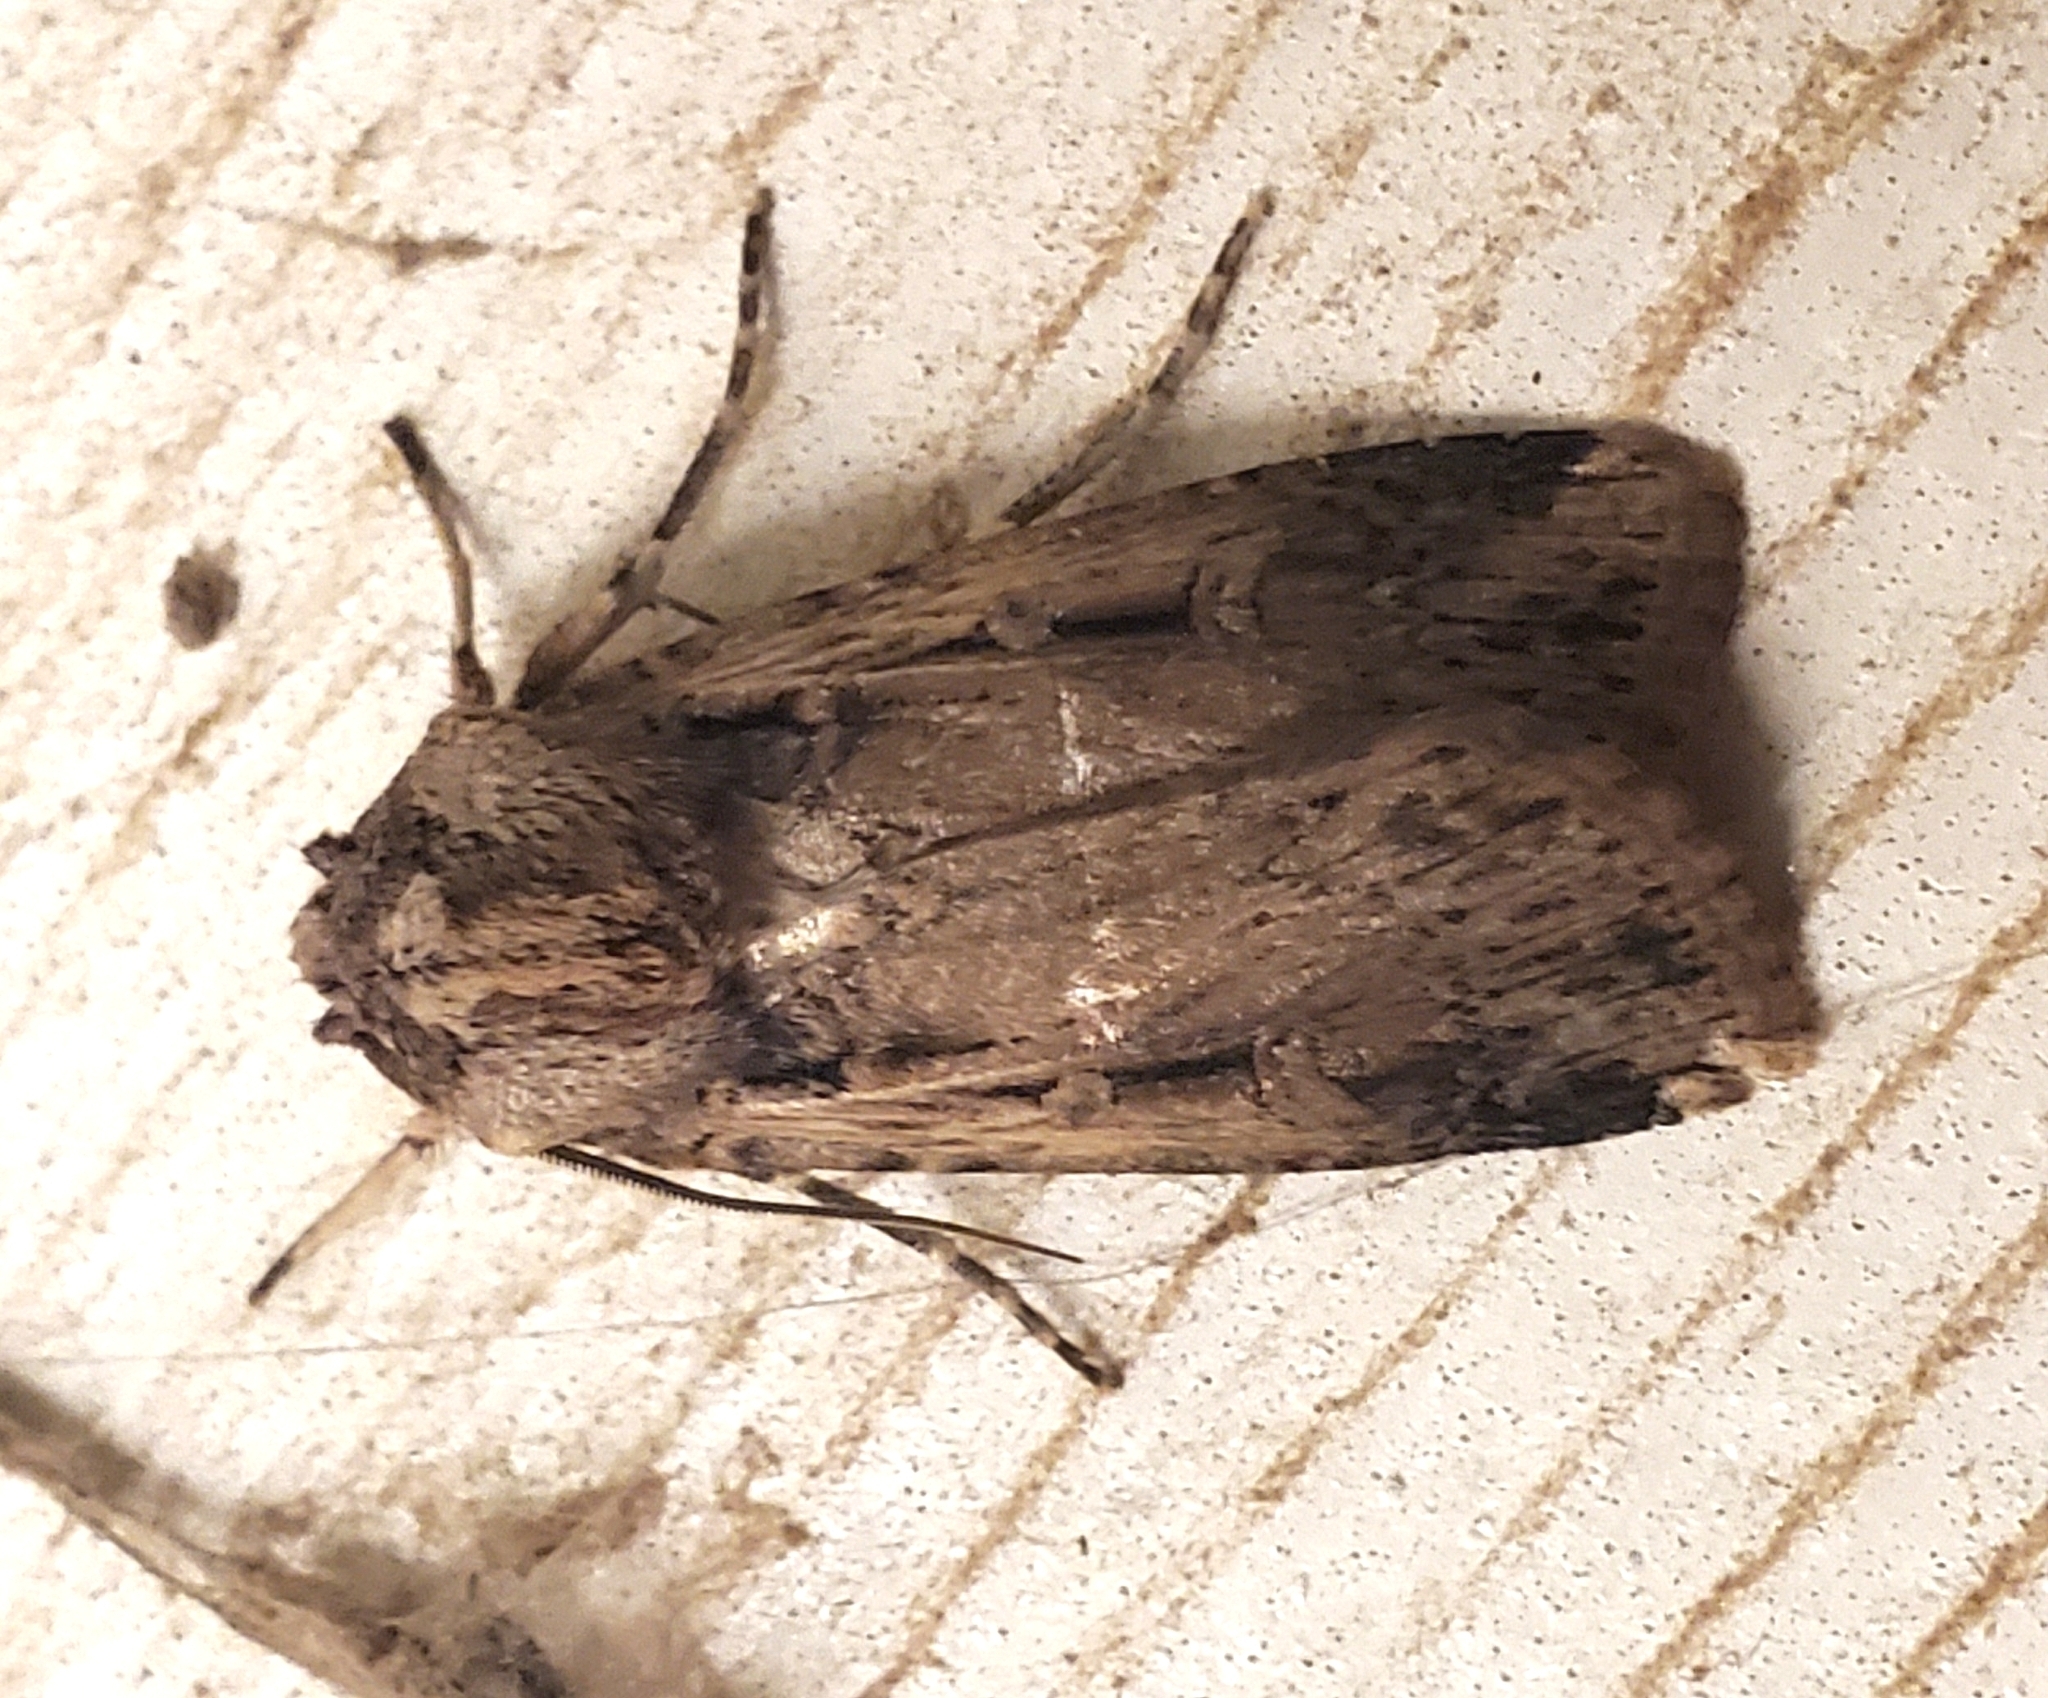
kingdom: Animalia
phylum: Arthropoda
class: Insecta
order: Lepidoptera
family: Noctuidae
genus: Feltia
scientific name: Feltia subterranea
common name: Granulate cutworm
